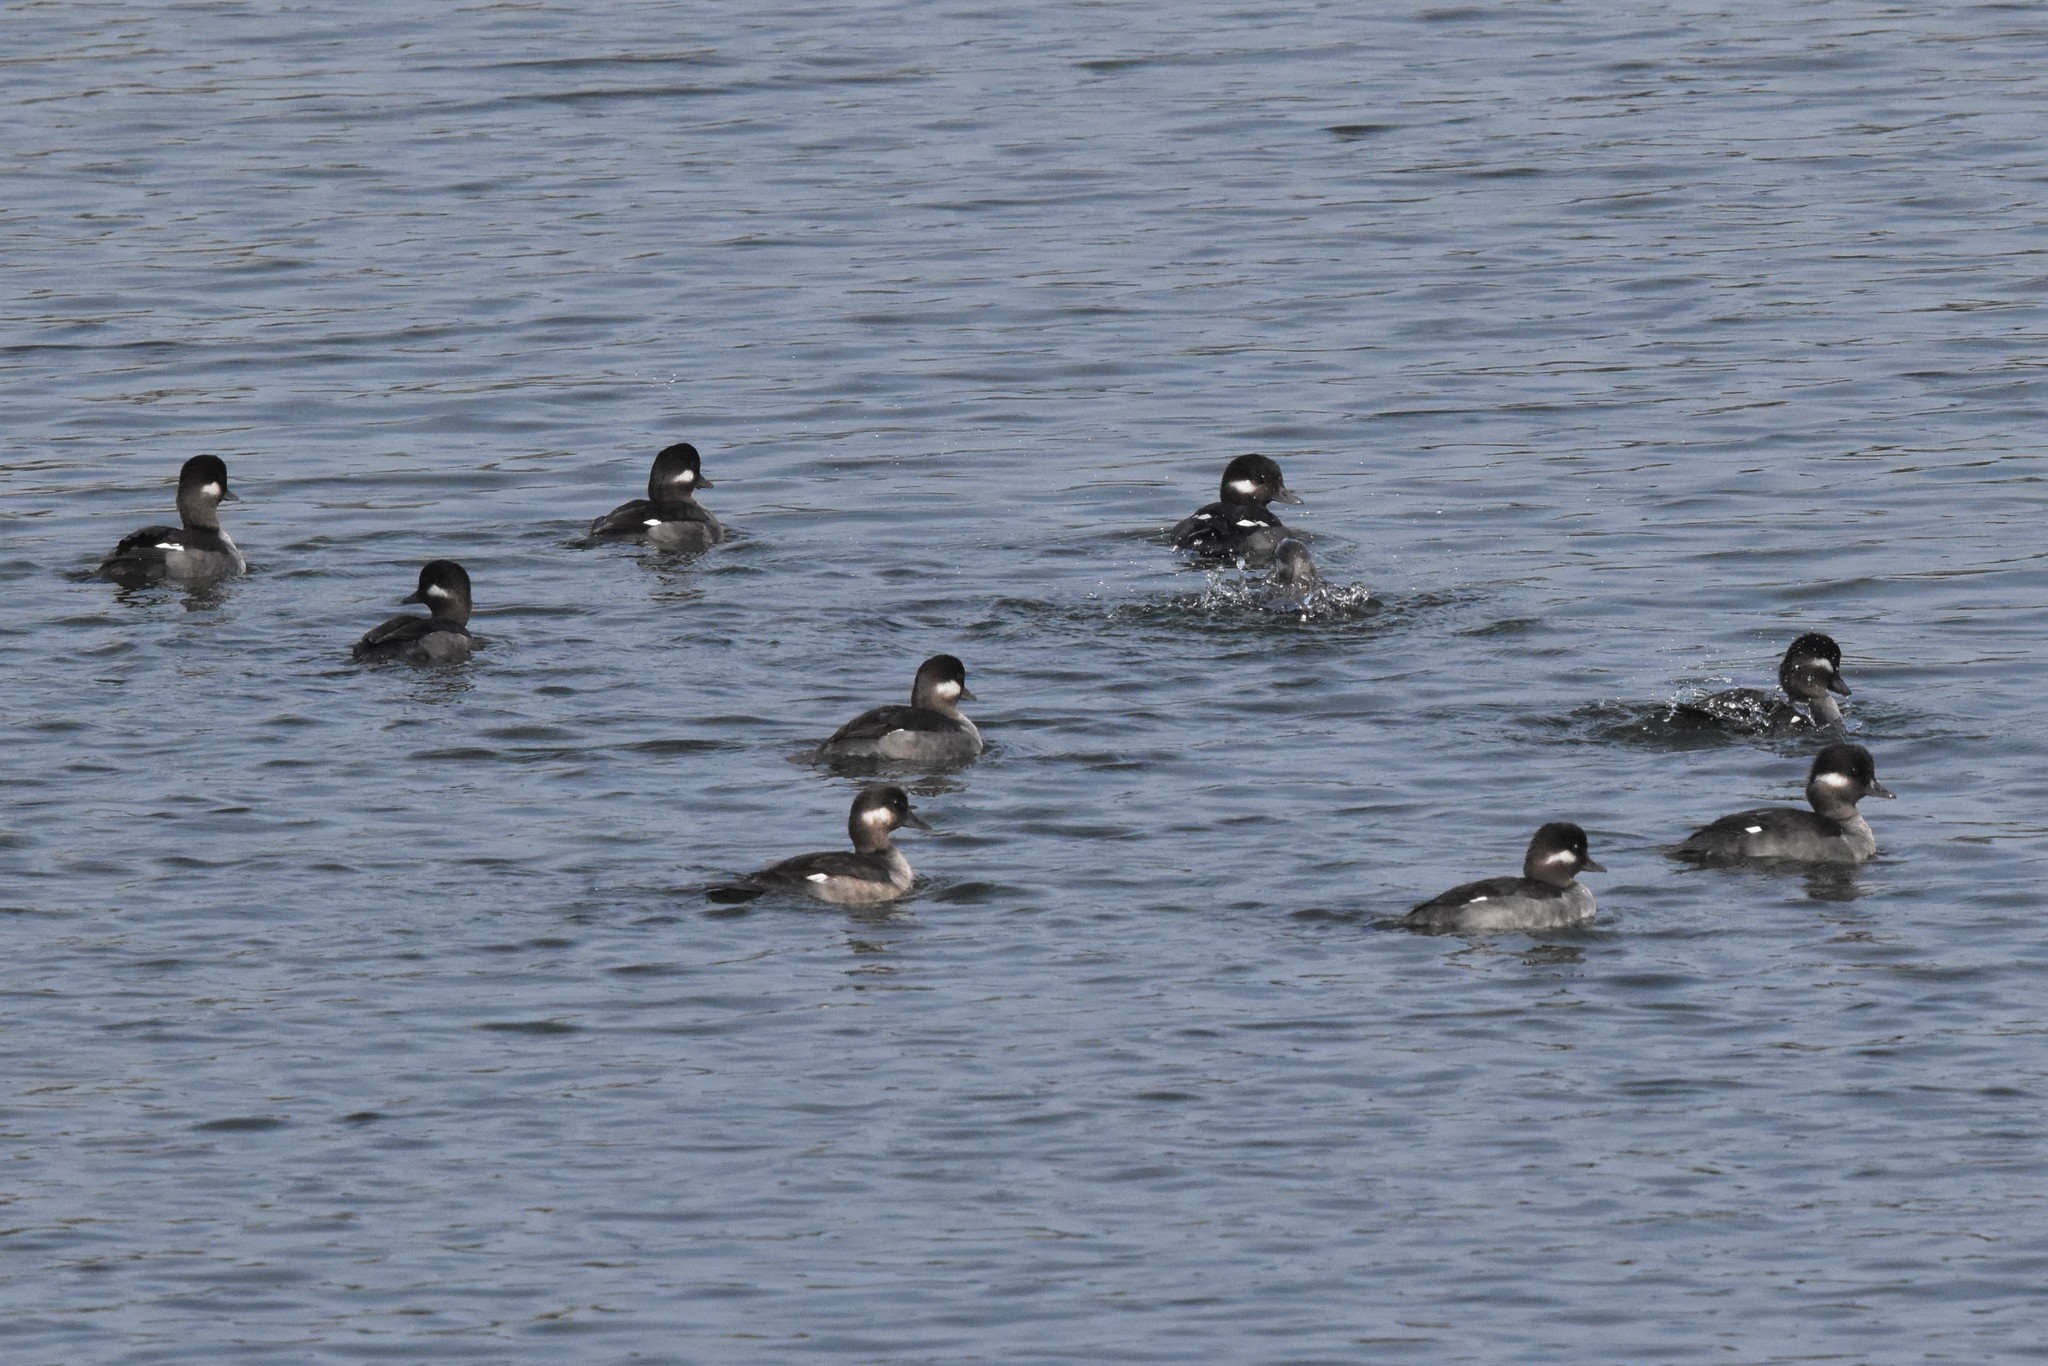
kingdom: Animalia
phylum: Chordata
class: Aves
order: Anseriformes
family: Anatidae
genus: Bucephala
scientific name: Bucephala albeola
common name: Bufflehead
